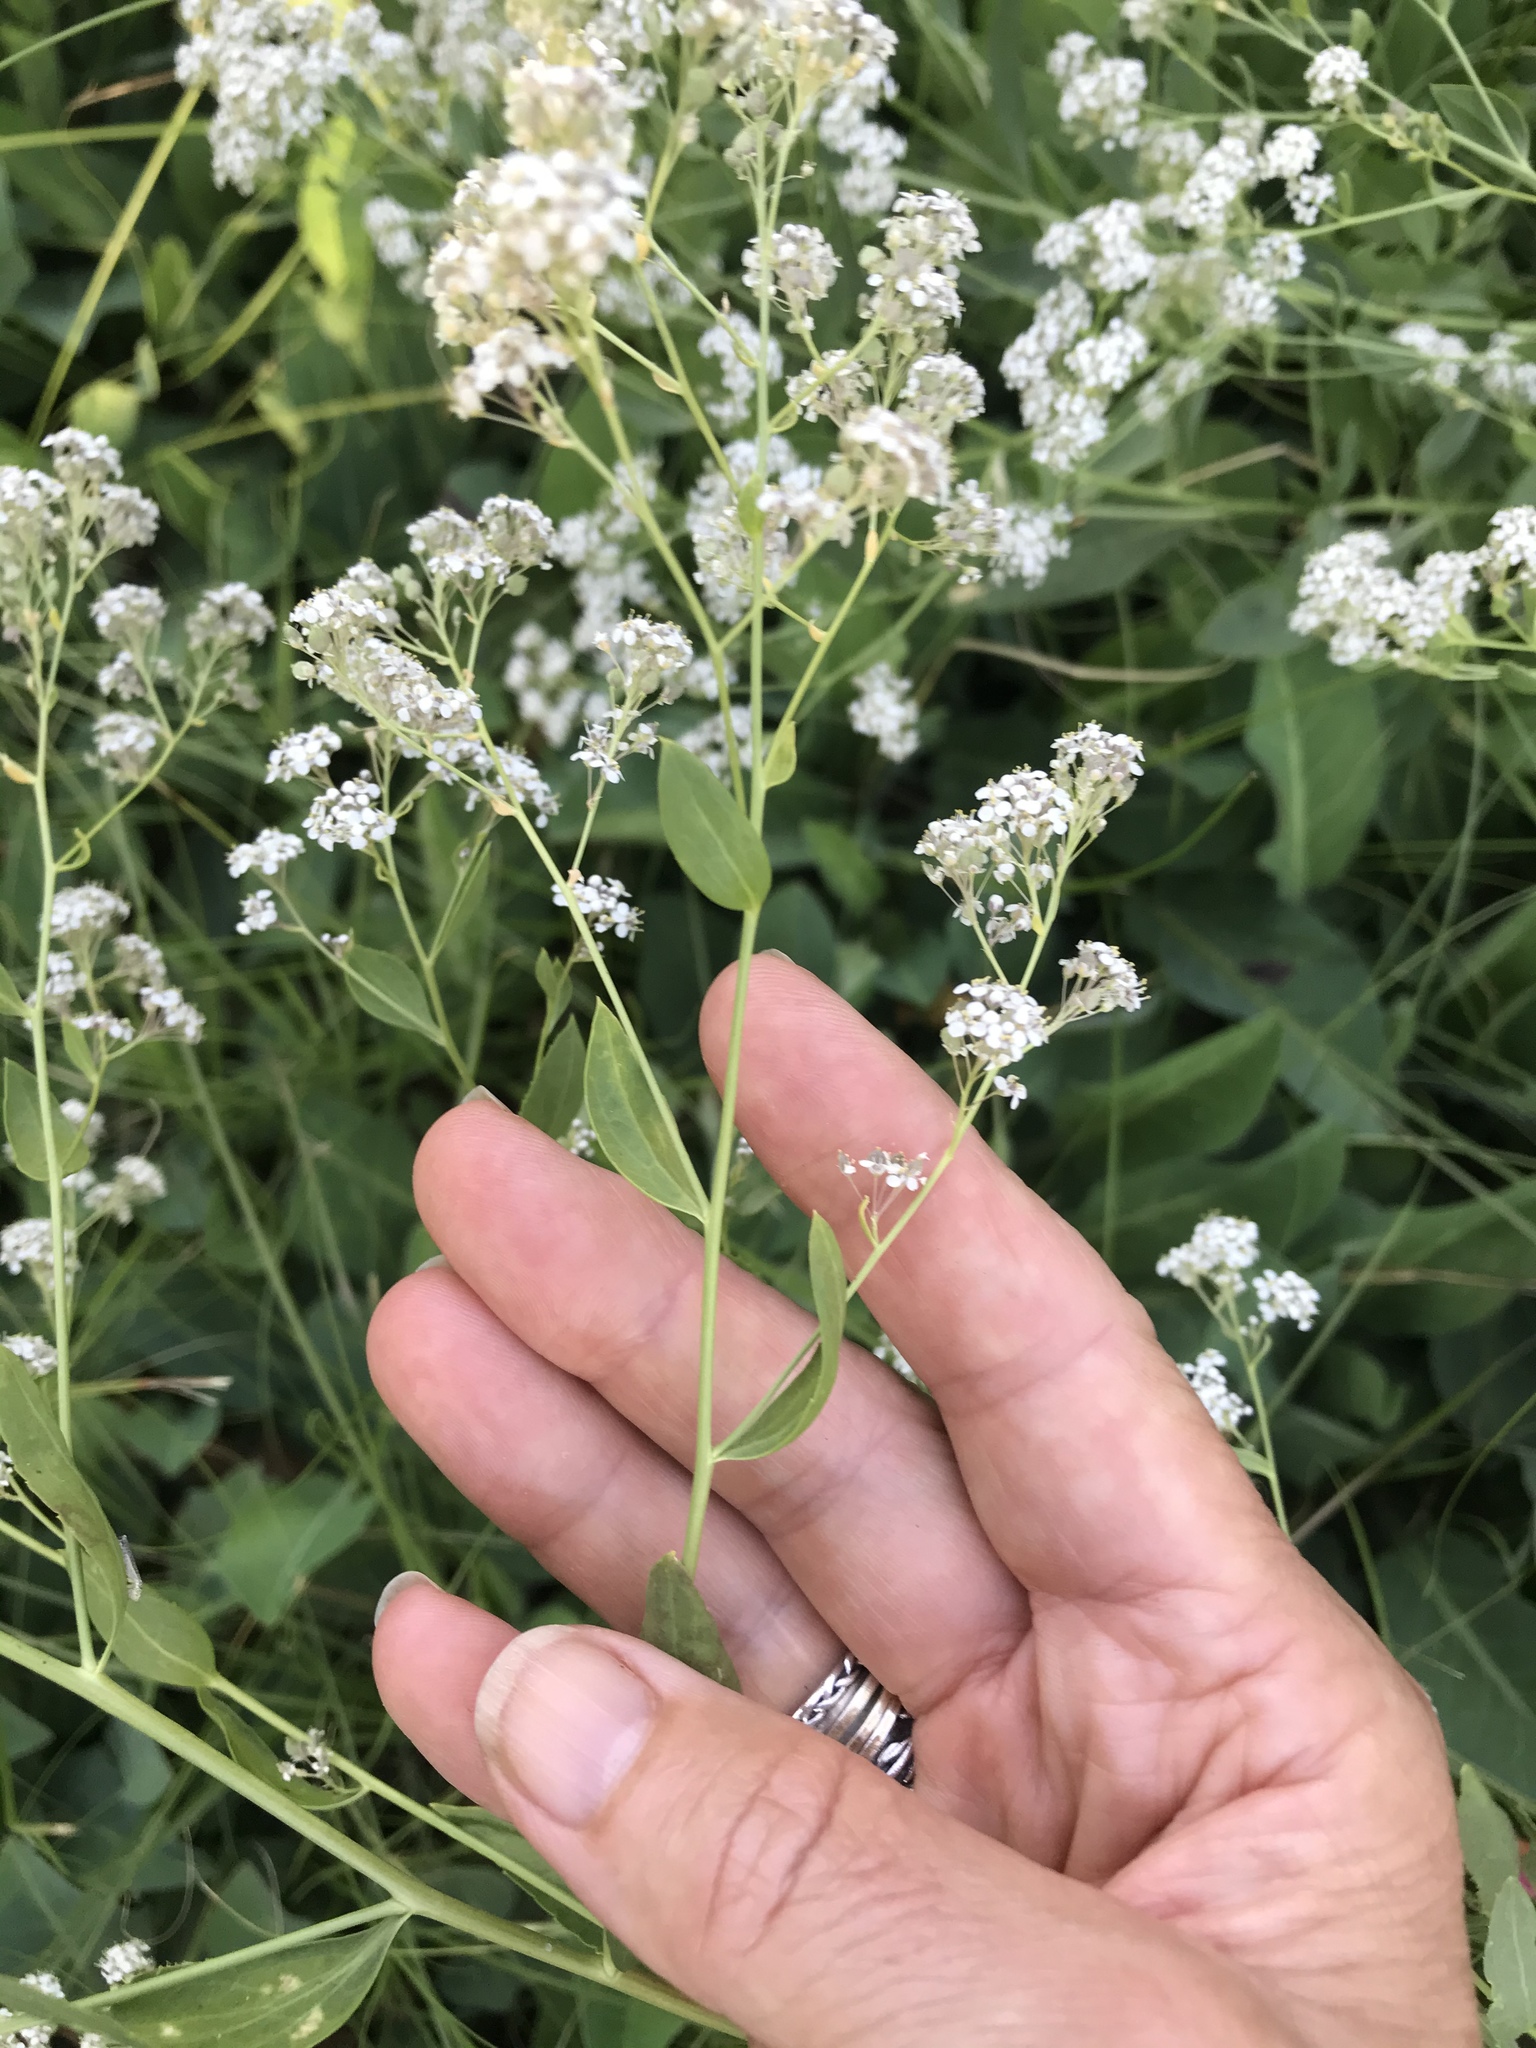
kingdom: Plantae
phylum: Tracheophyta
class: Magnoliopsida
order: Brassicales
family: Brassicaceae
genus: Lepidium
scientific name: Lepidium latifolium
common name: Dittander
